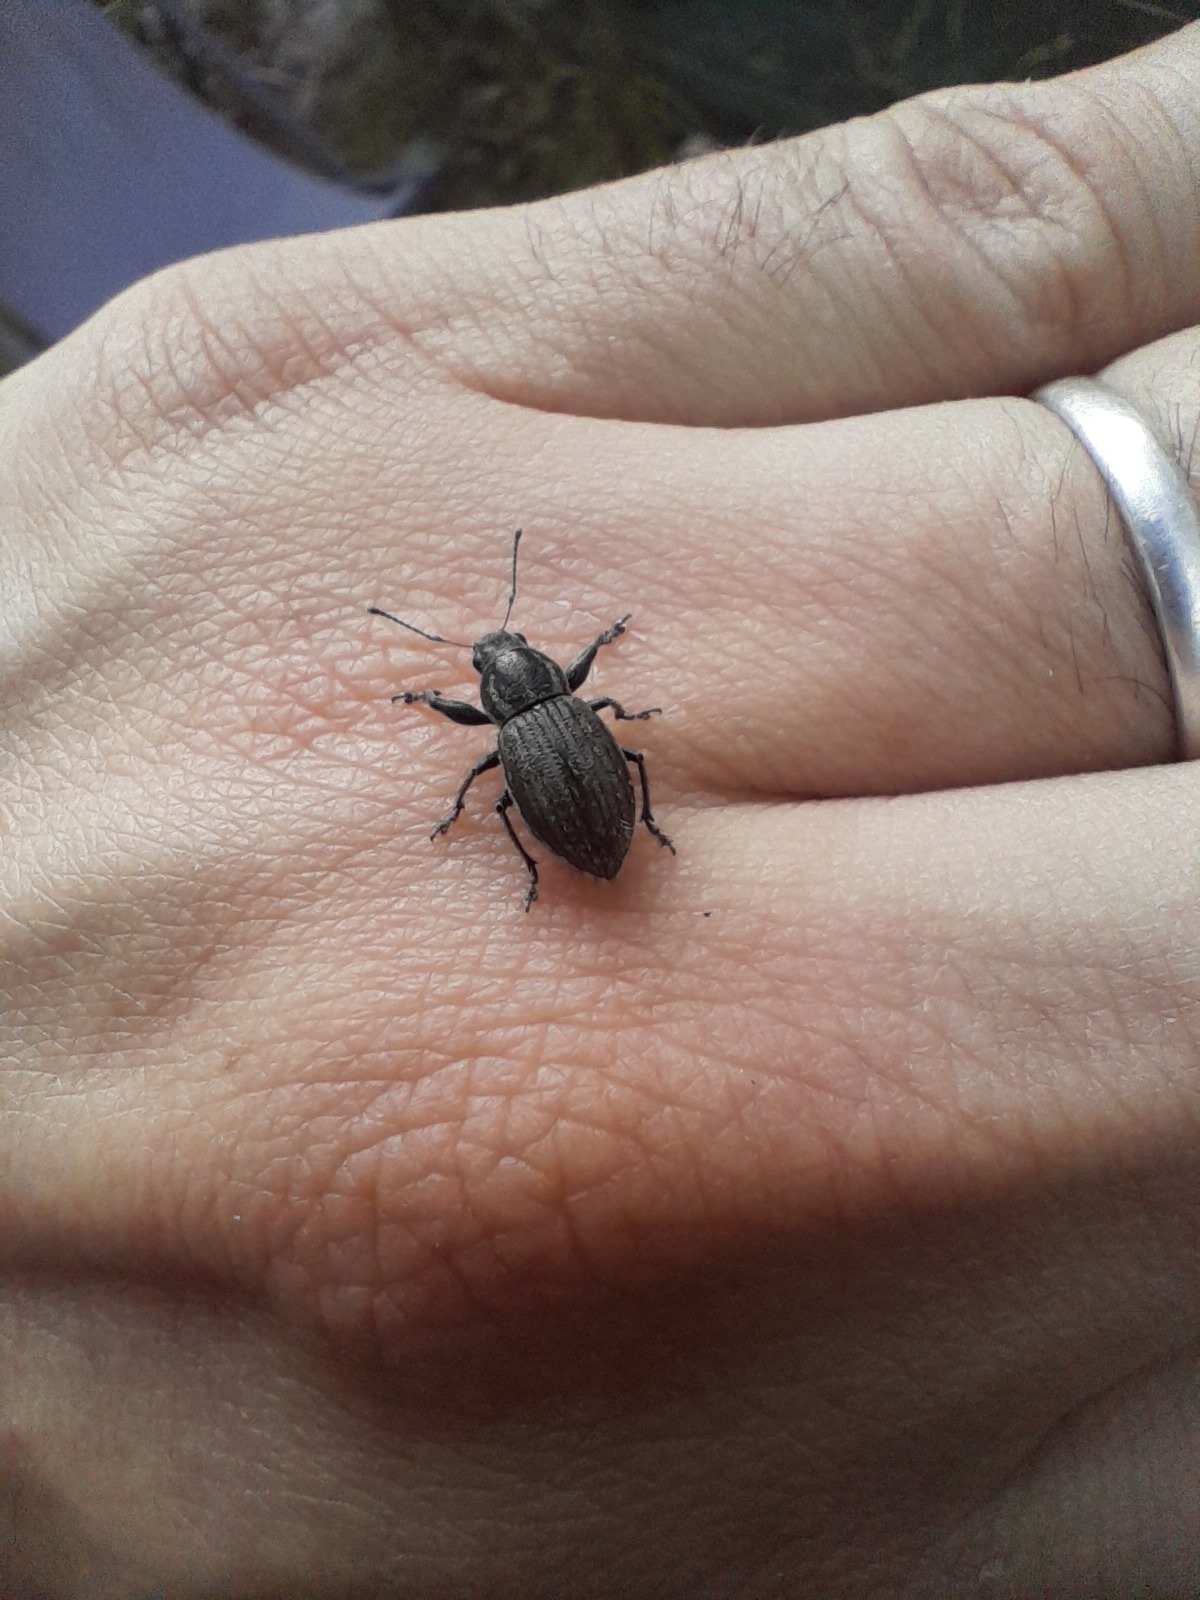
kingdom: Animalia
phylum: Arthropoda
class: Insecta
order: Coleoptera
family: Curculionidae
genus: Naupactus
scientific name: Naupactus leucoloma
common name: Whitefringed beetle
